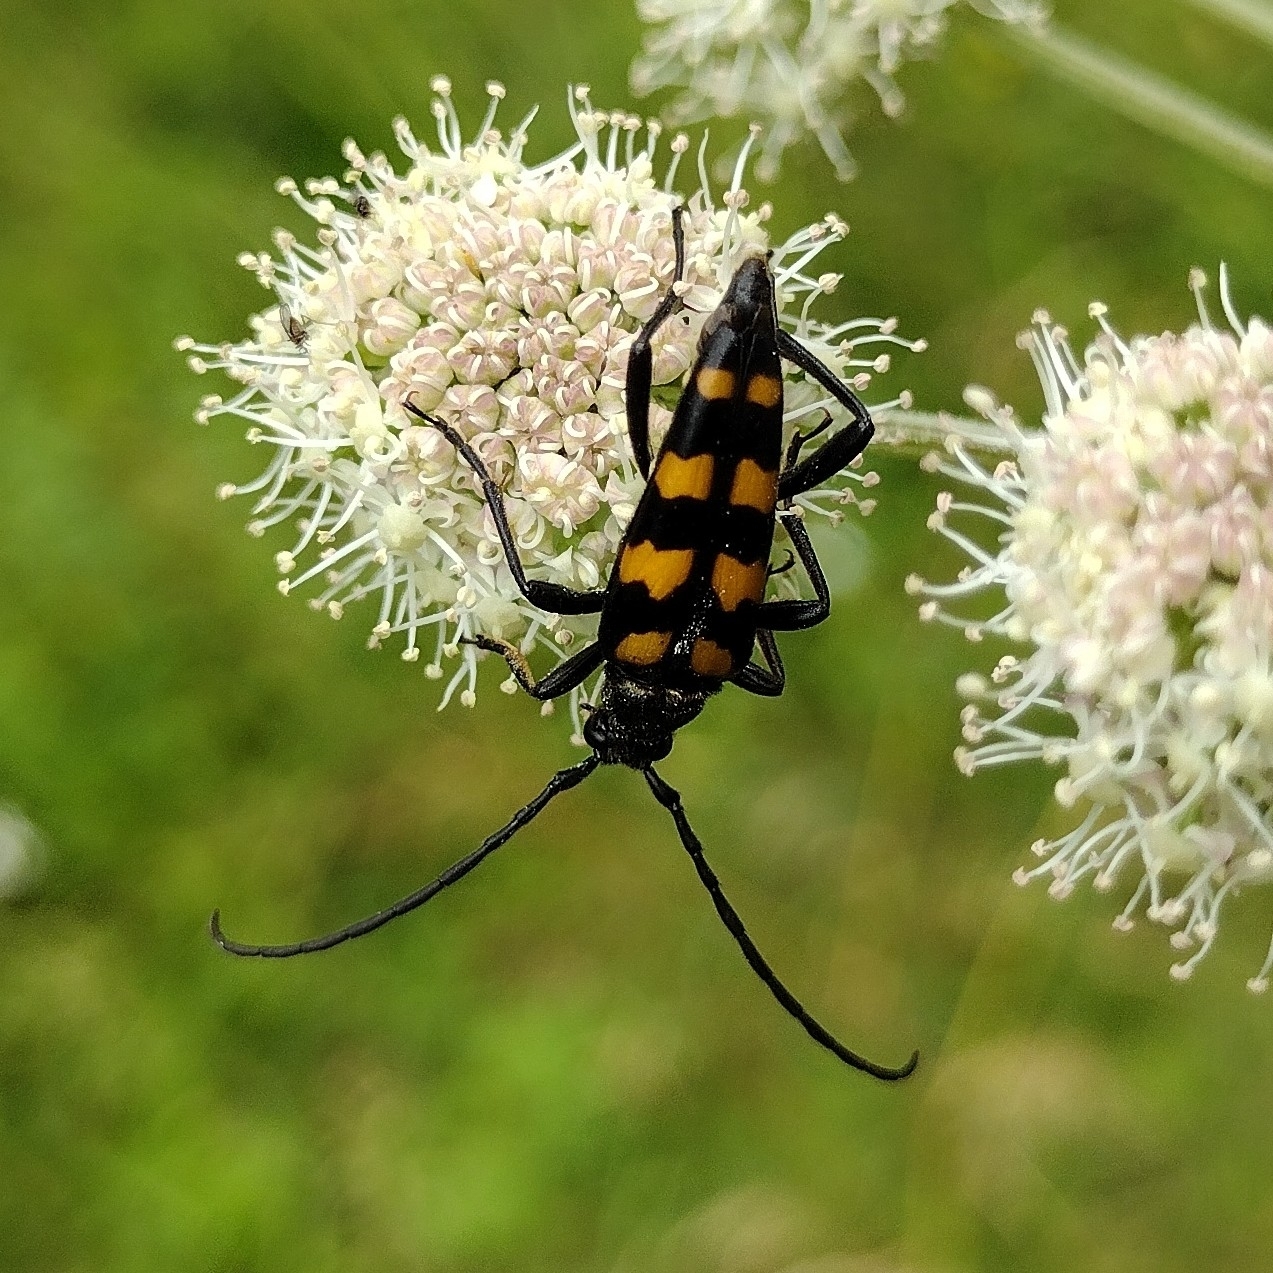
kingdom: Animalia
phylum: Arthropoda
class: Insecta
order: Coleoptera
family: Cerambycidae
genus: Leptura
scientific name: Leptura quadrifasciata
